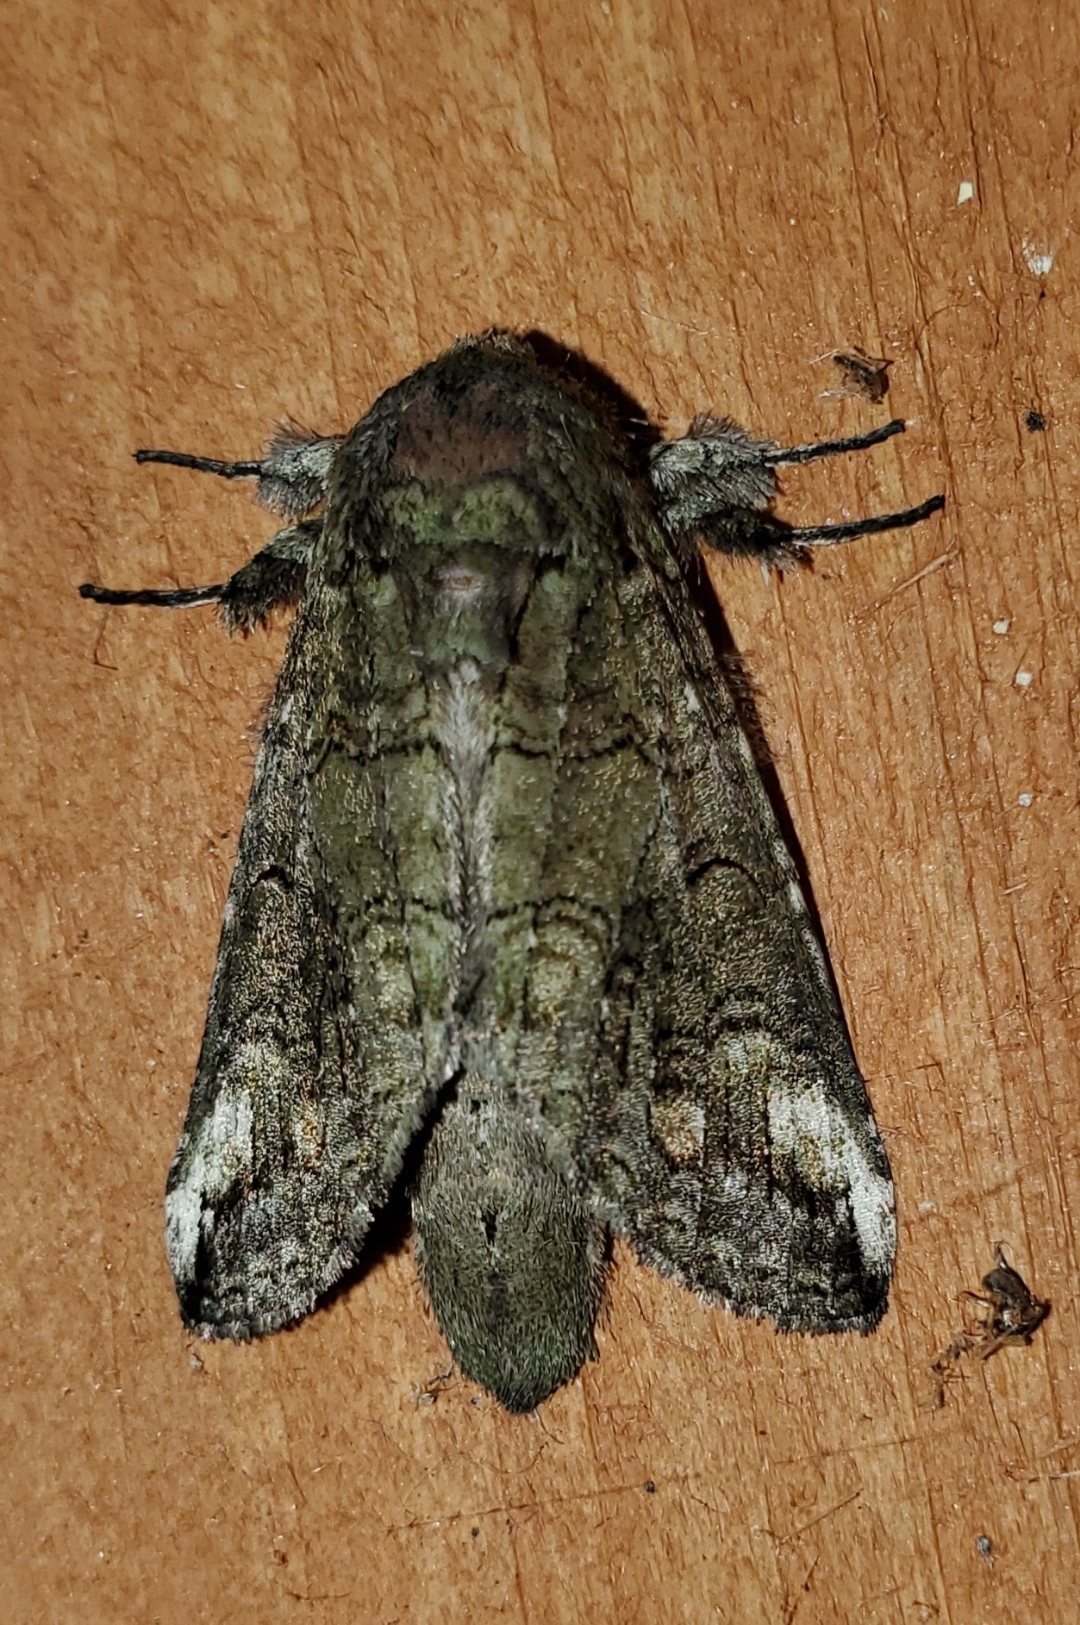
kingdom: Animalia
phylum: Arthropoda
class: Insecta
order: Lepidoptera
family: Notodontidae
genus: Heterocampa
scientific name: Heterocampa obliqua
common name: Oblique heterocampa
